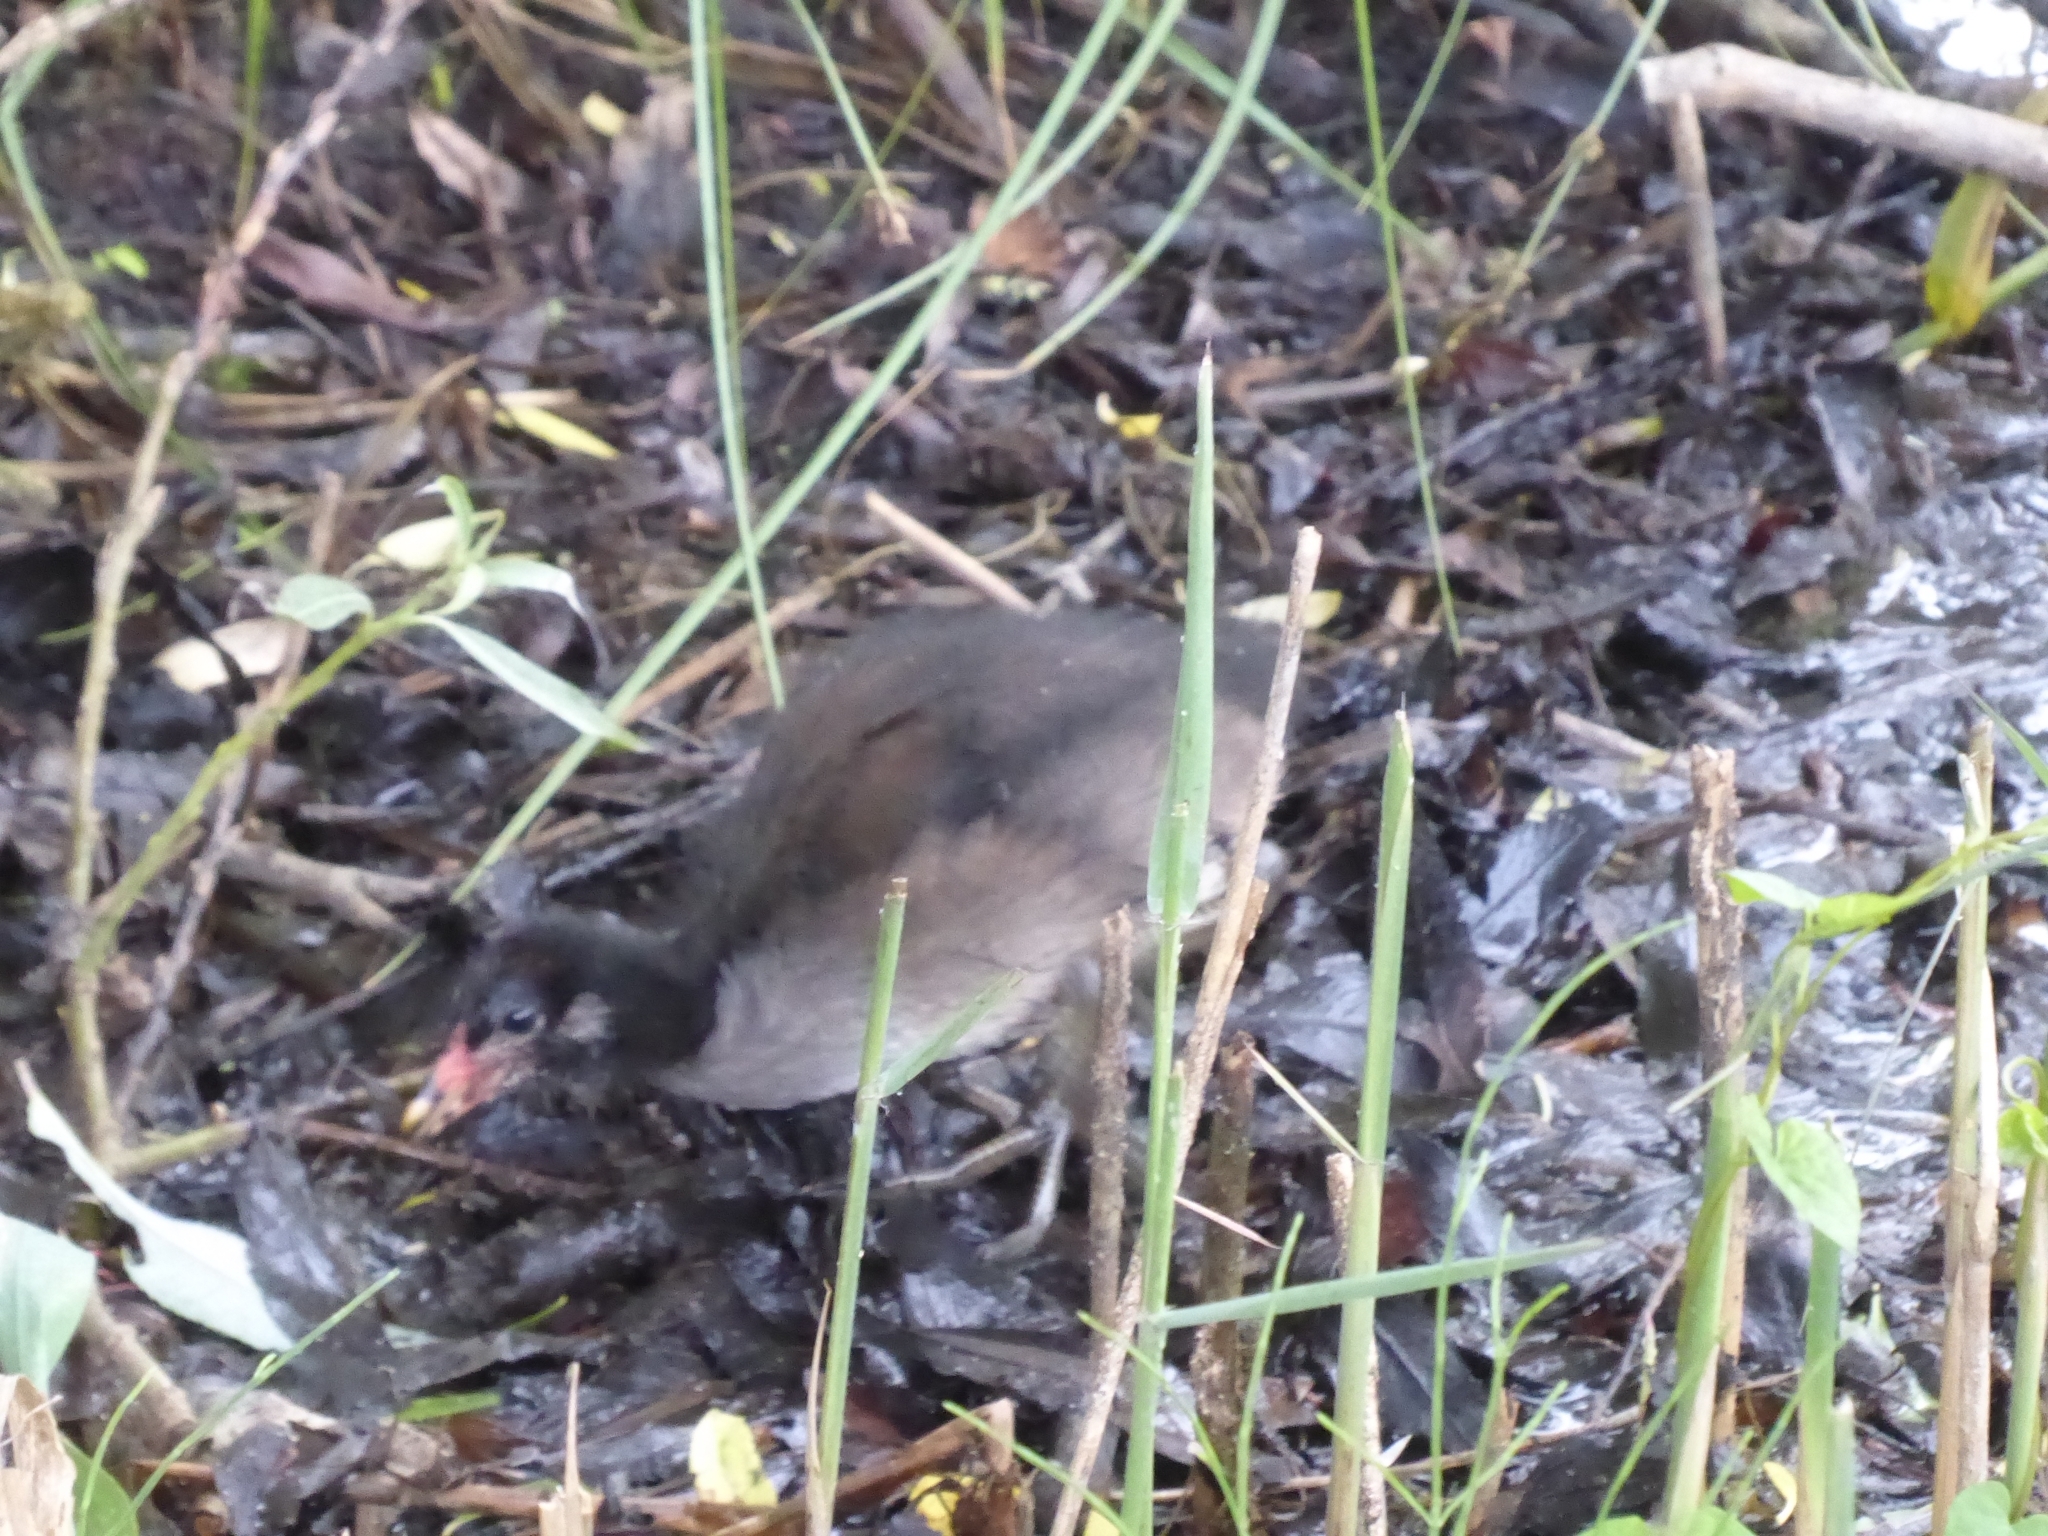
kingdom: Animalia
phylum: Chordata
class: Aves
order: Gruiformes
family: Rallidae
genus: Gallinula
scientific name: Gallinula chloropus
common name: Common moorhen
